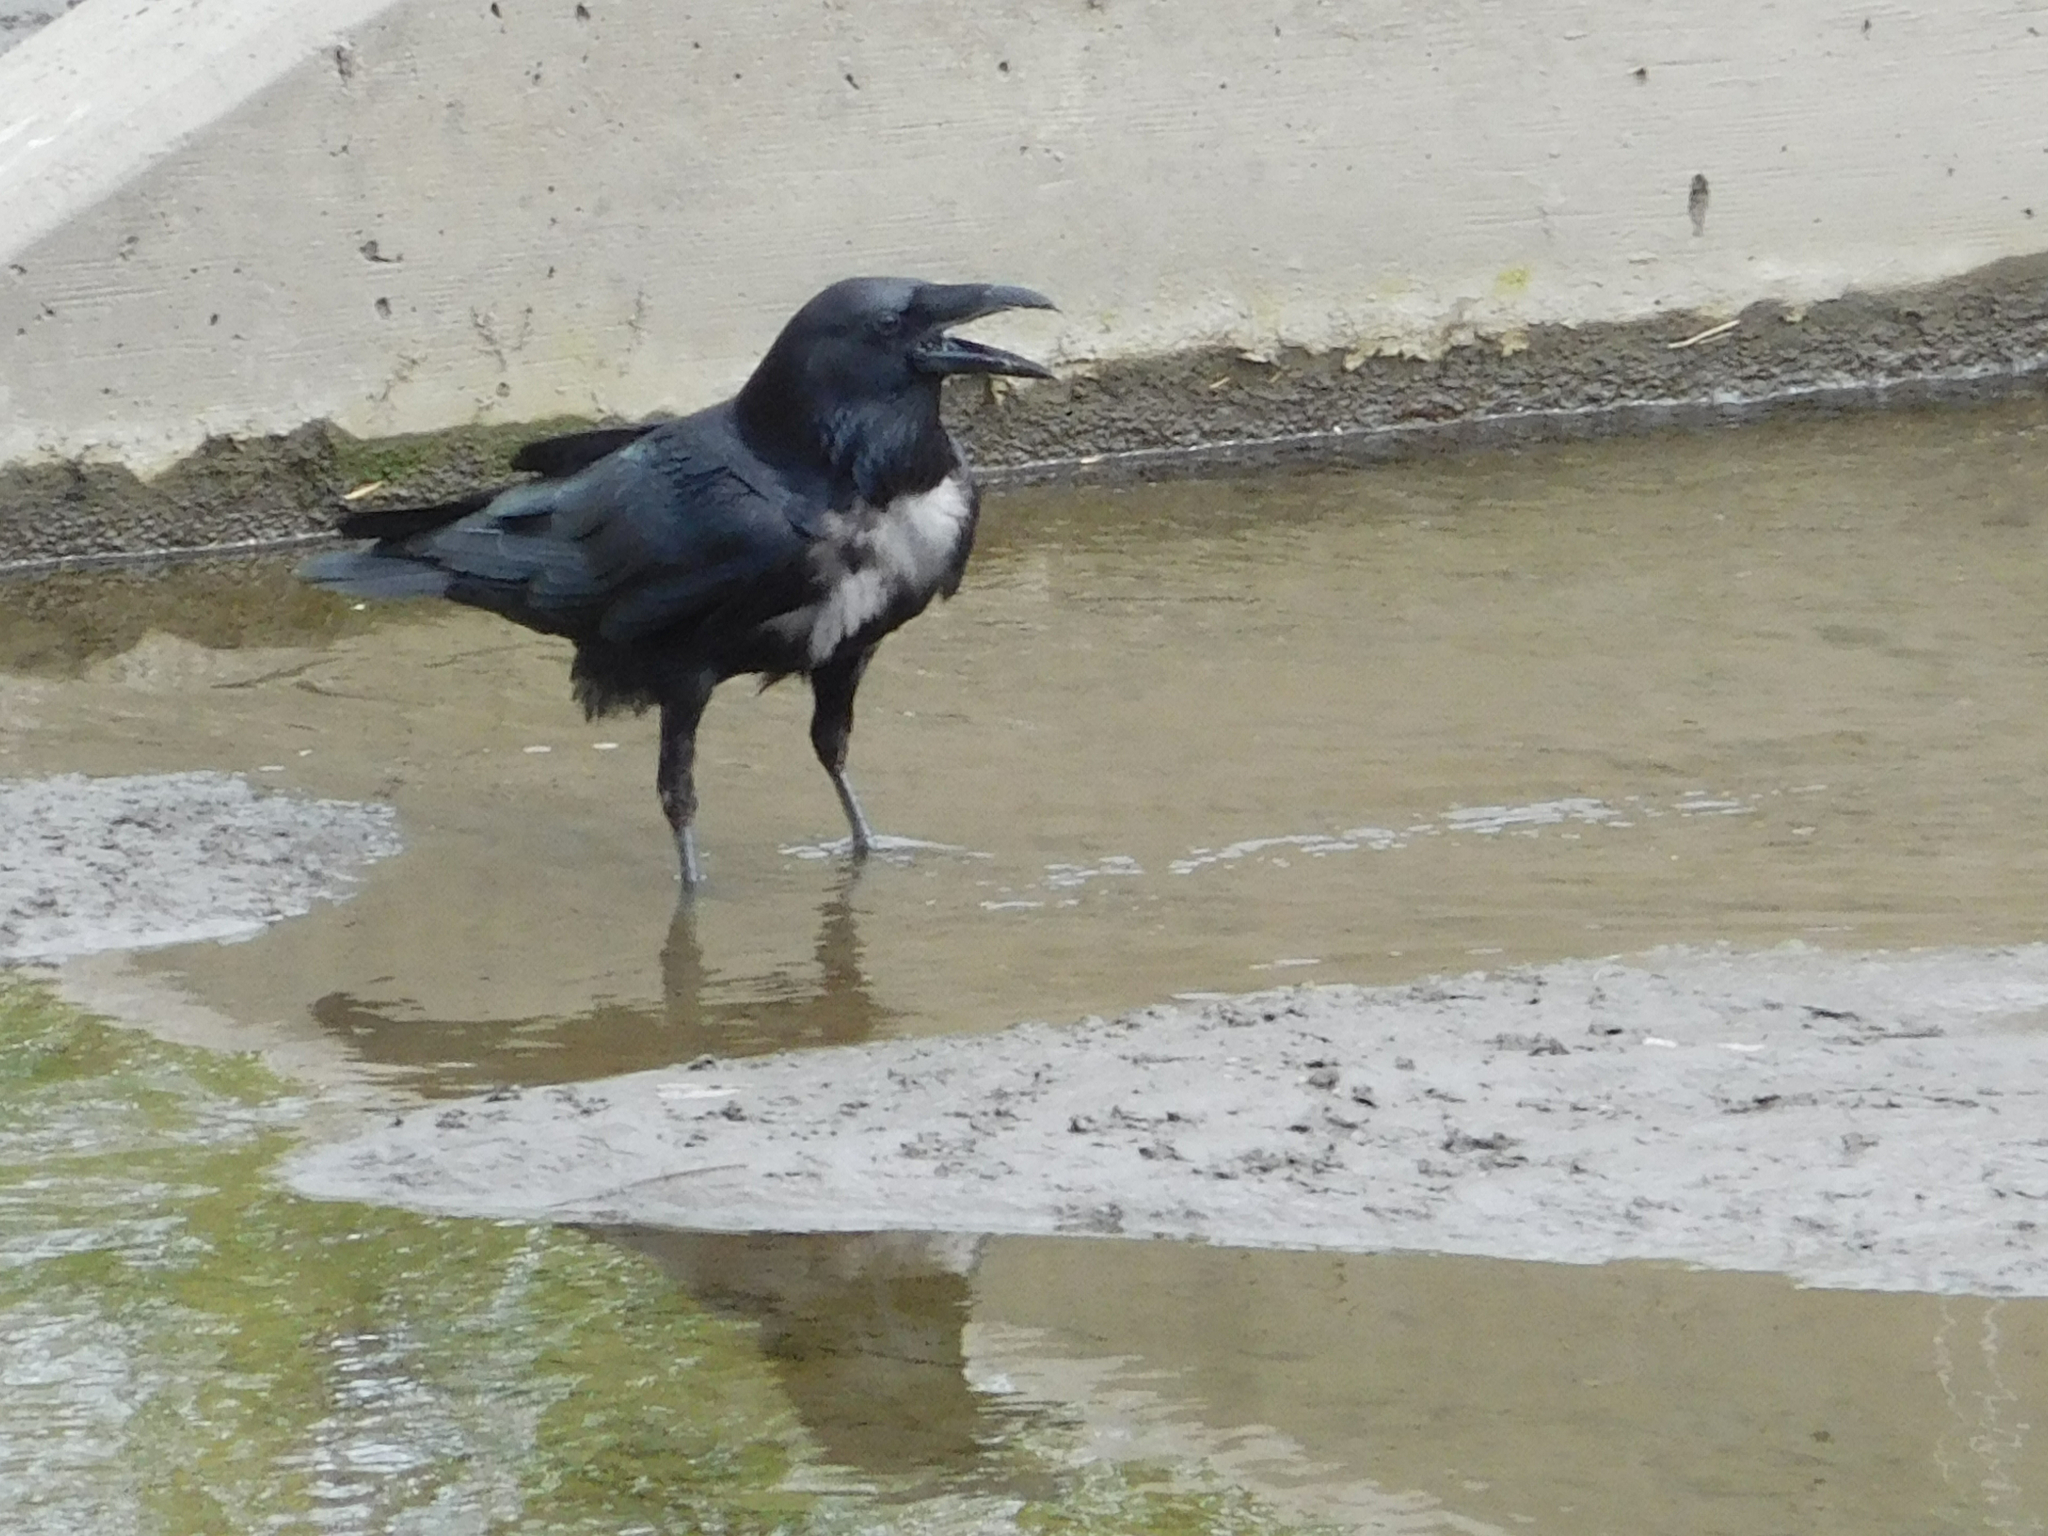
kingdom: Animalia
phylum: Chordata
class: Aves
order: Passeriformes
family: Corvidae
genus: Corvus
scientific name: Corvus corax
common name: Common raven
